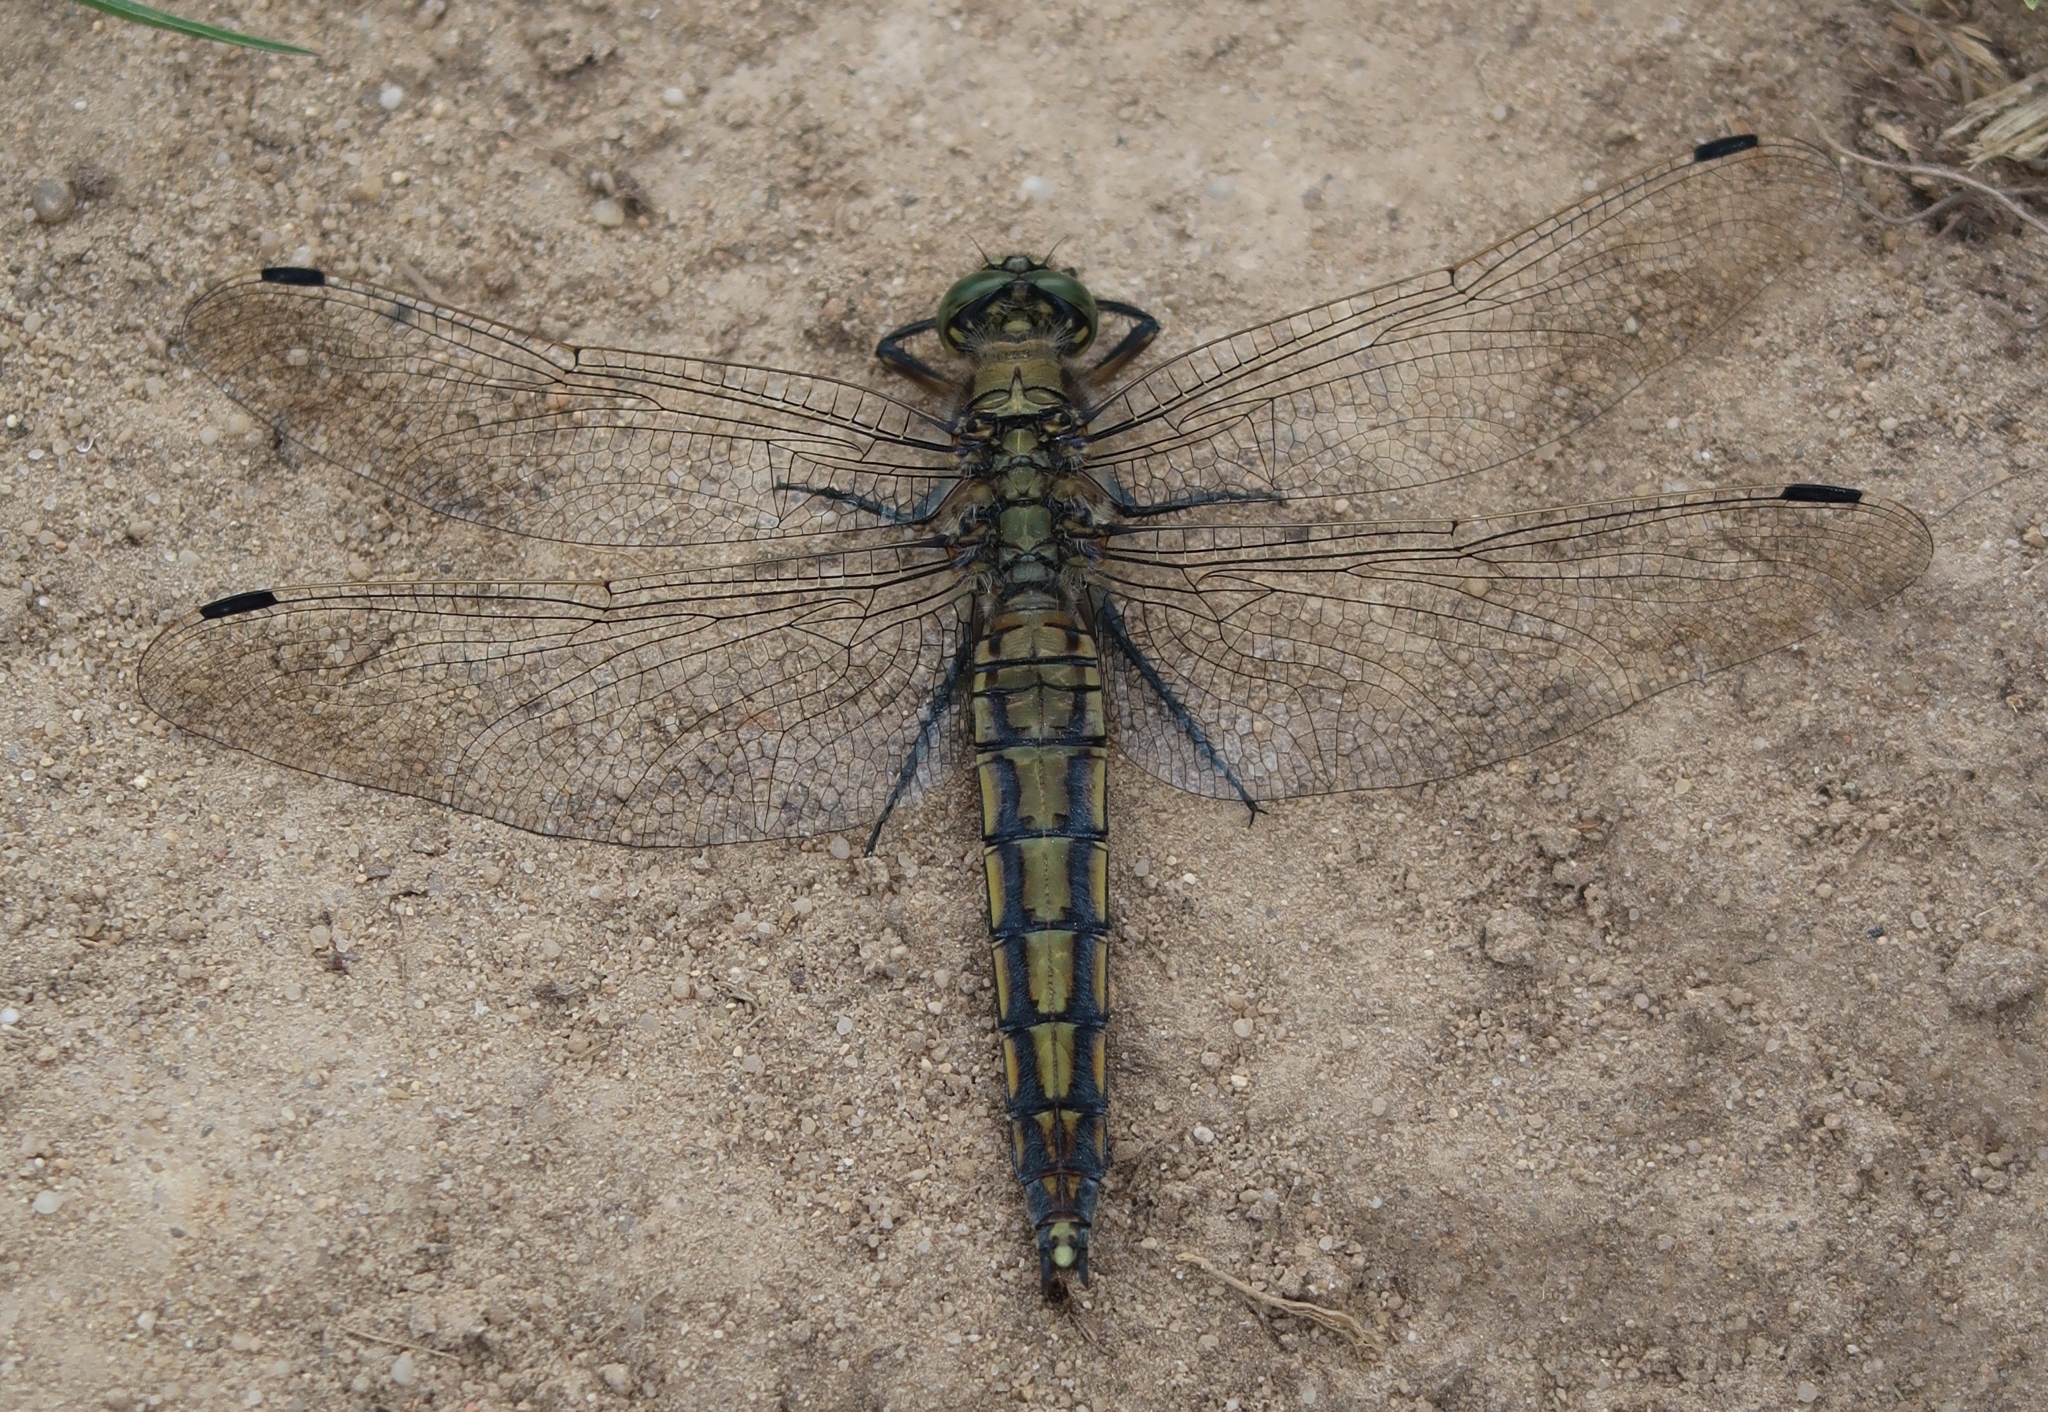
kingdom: Animalia
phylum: Arthropoda
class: Insecta
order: Odonata
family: Libellulidae
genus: Orthetrum
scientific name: Orthetrum cancellatum
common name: Black-tailed skimmer
